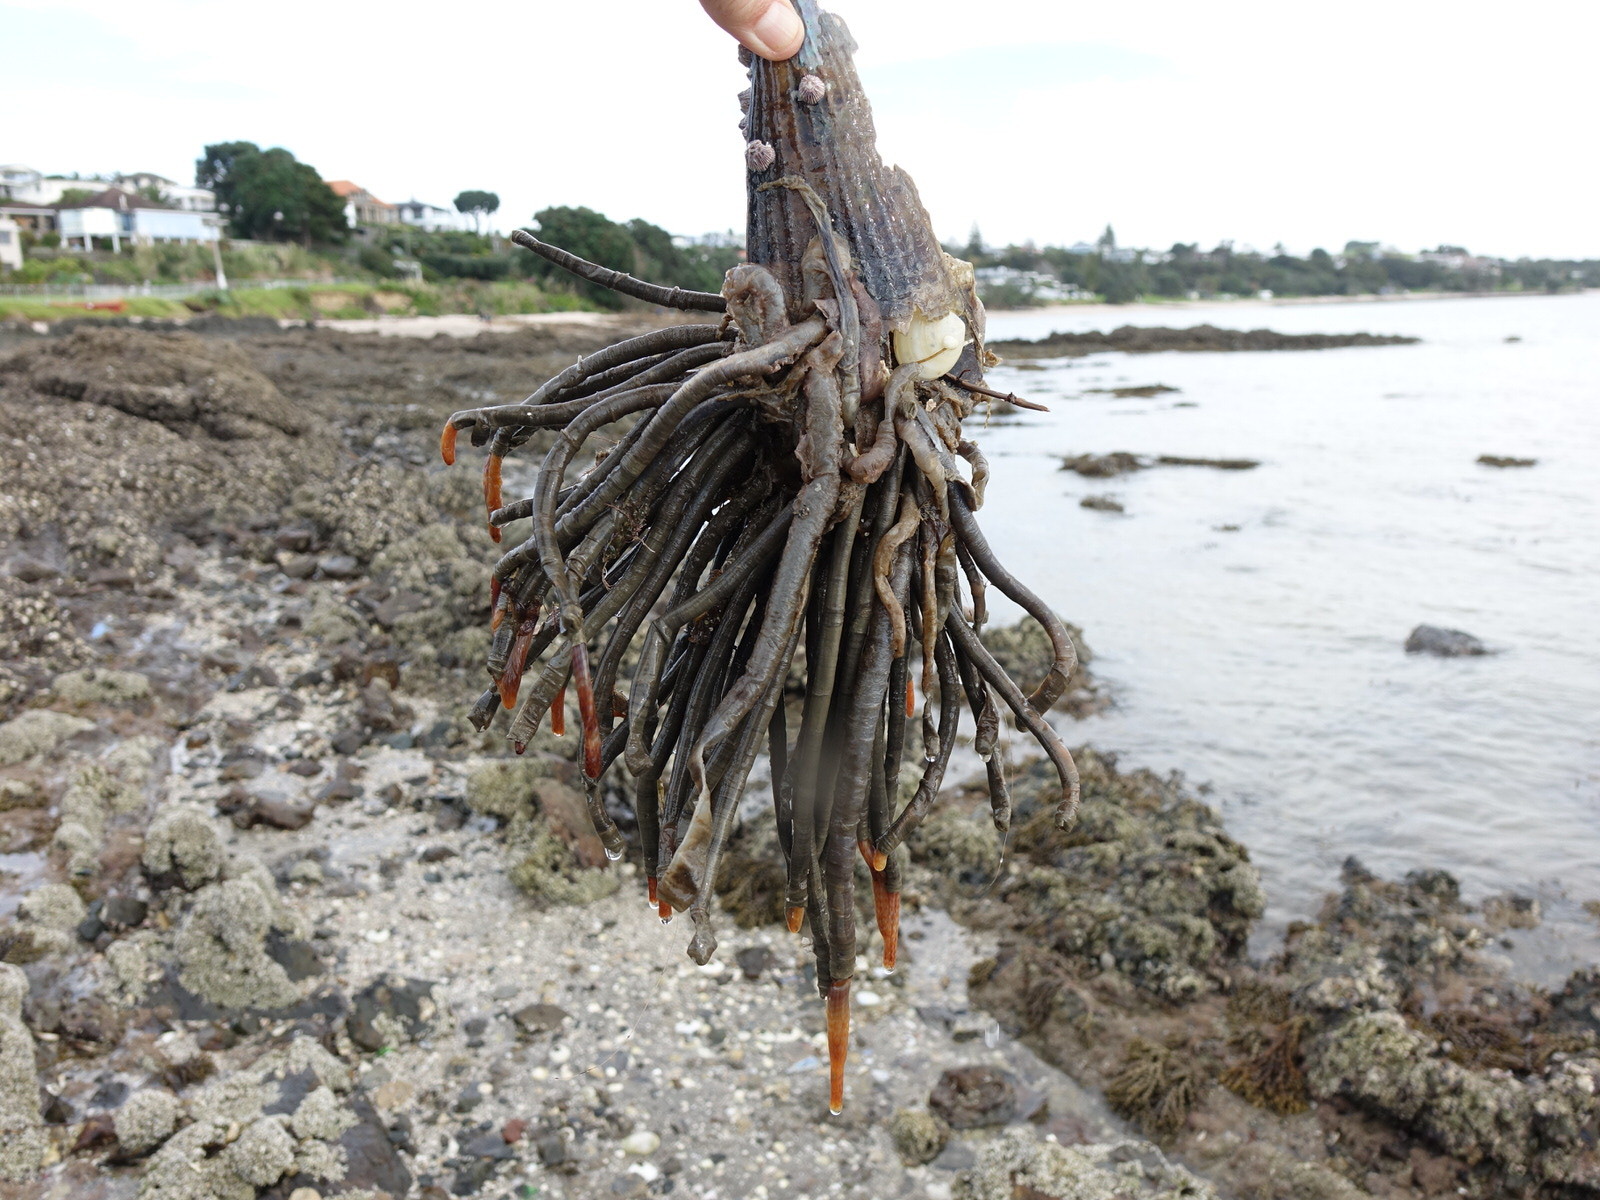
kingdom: Animalia
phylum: Annelida
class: Polychaeta
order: Sabellida
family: Sabellidae
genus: Sabella
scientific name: Sabella spallanzanii
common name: Feather duster worm
